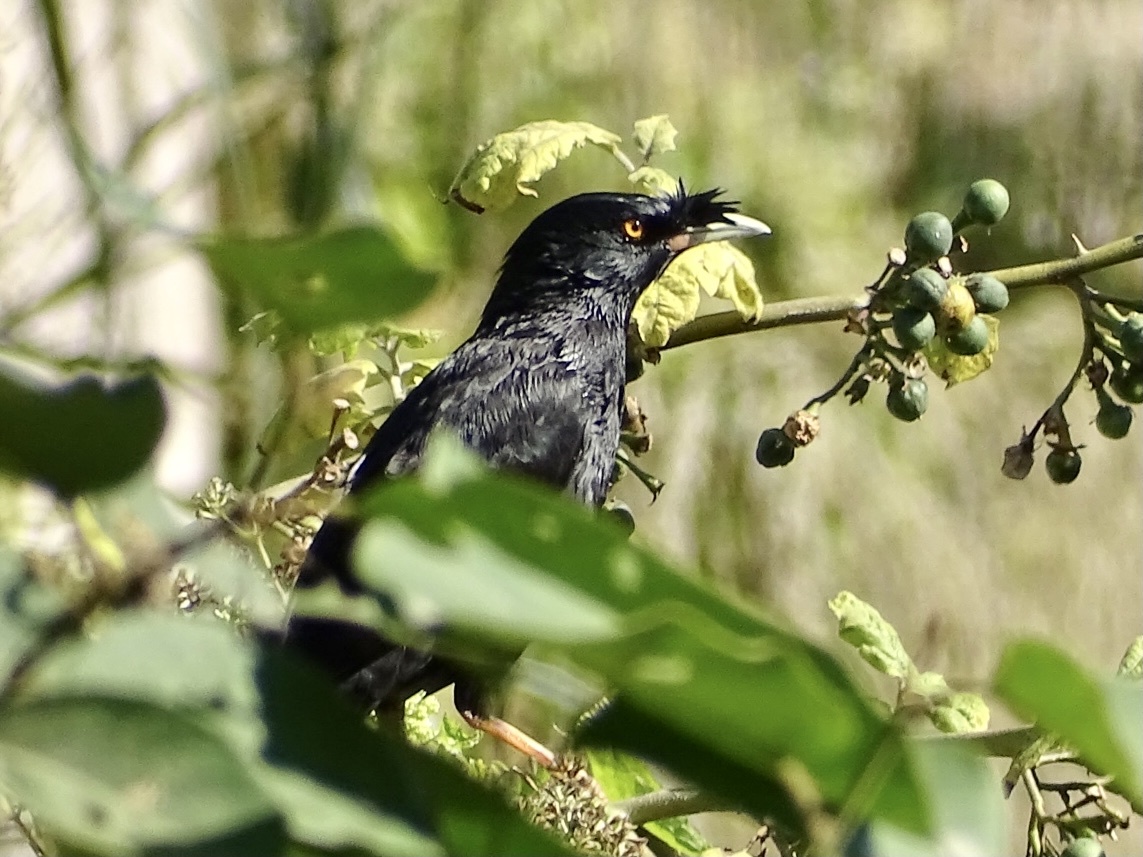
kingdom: Animalia
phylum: Chordata
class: Aves
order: Passeriformes
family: Sturnidae
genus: Acridotheres
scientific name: Acridotheres cristatellus
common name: Crested myna
